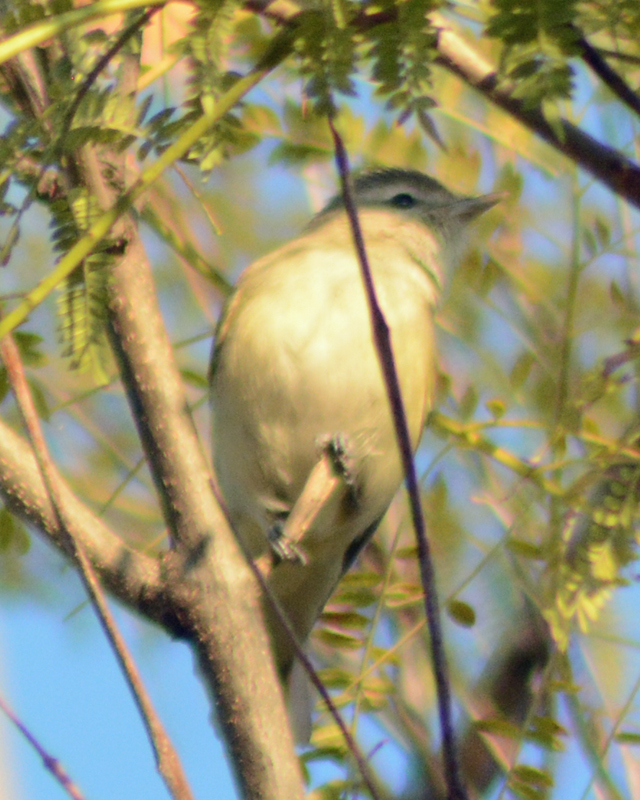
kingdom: Animalia
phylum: Chordata
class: Aves
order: Passeriformes
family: Vireonidae
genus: Vireo
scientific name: Vireo gilvus
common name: Warbling vireo
